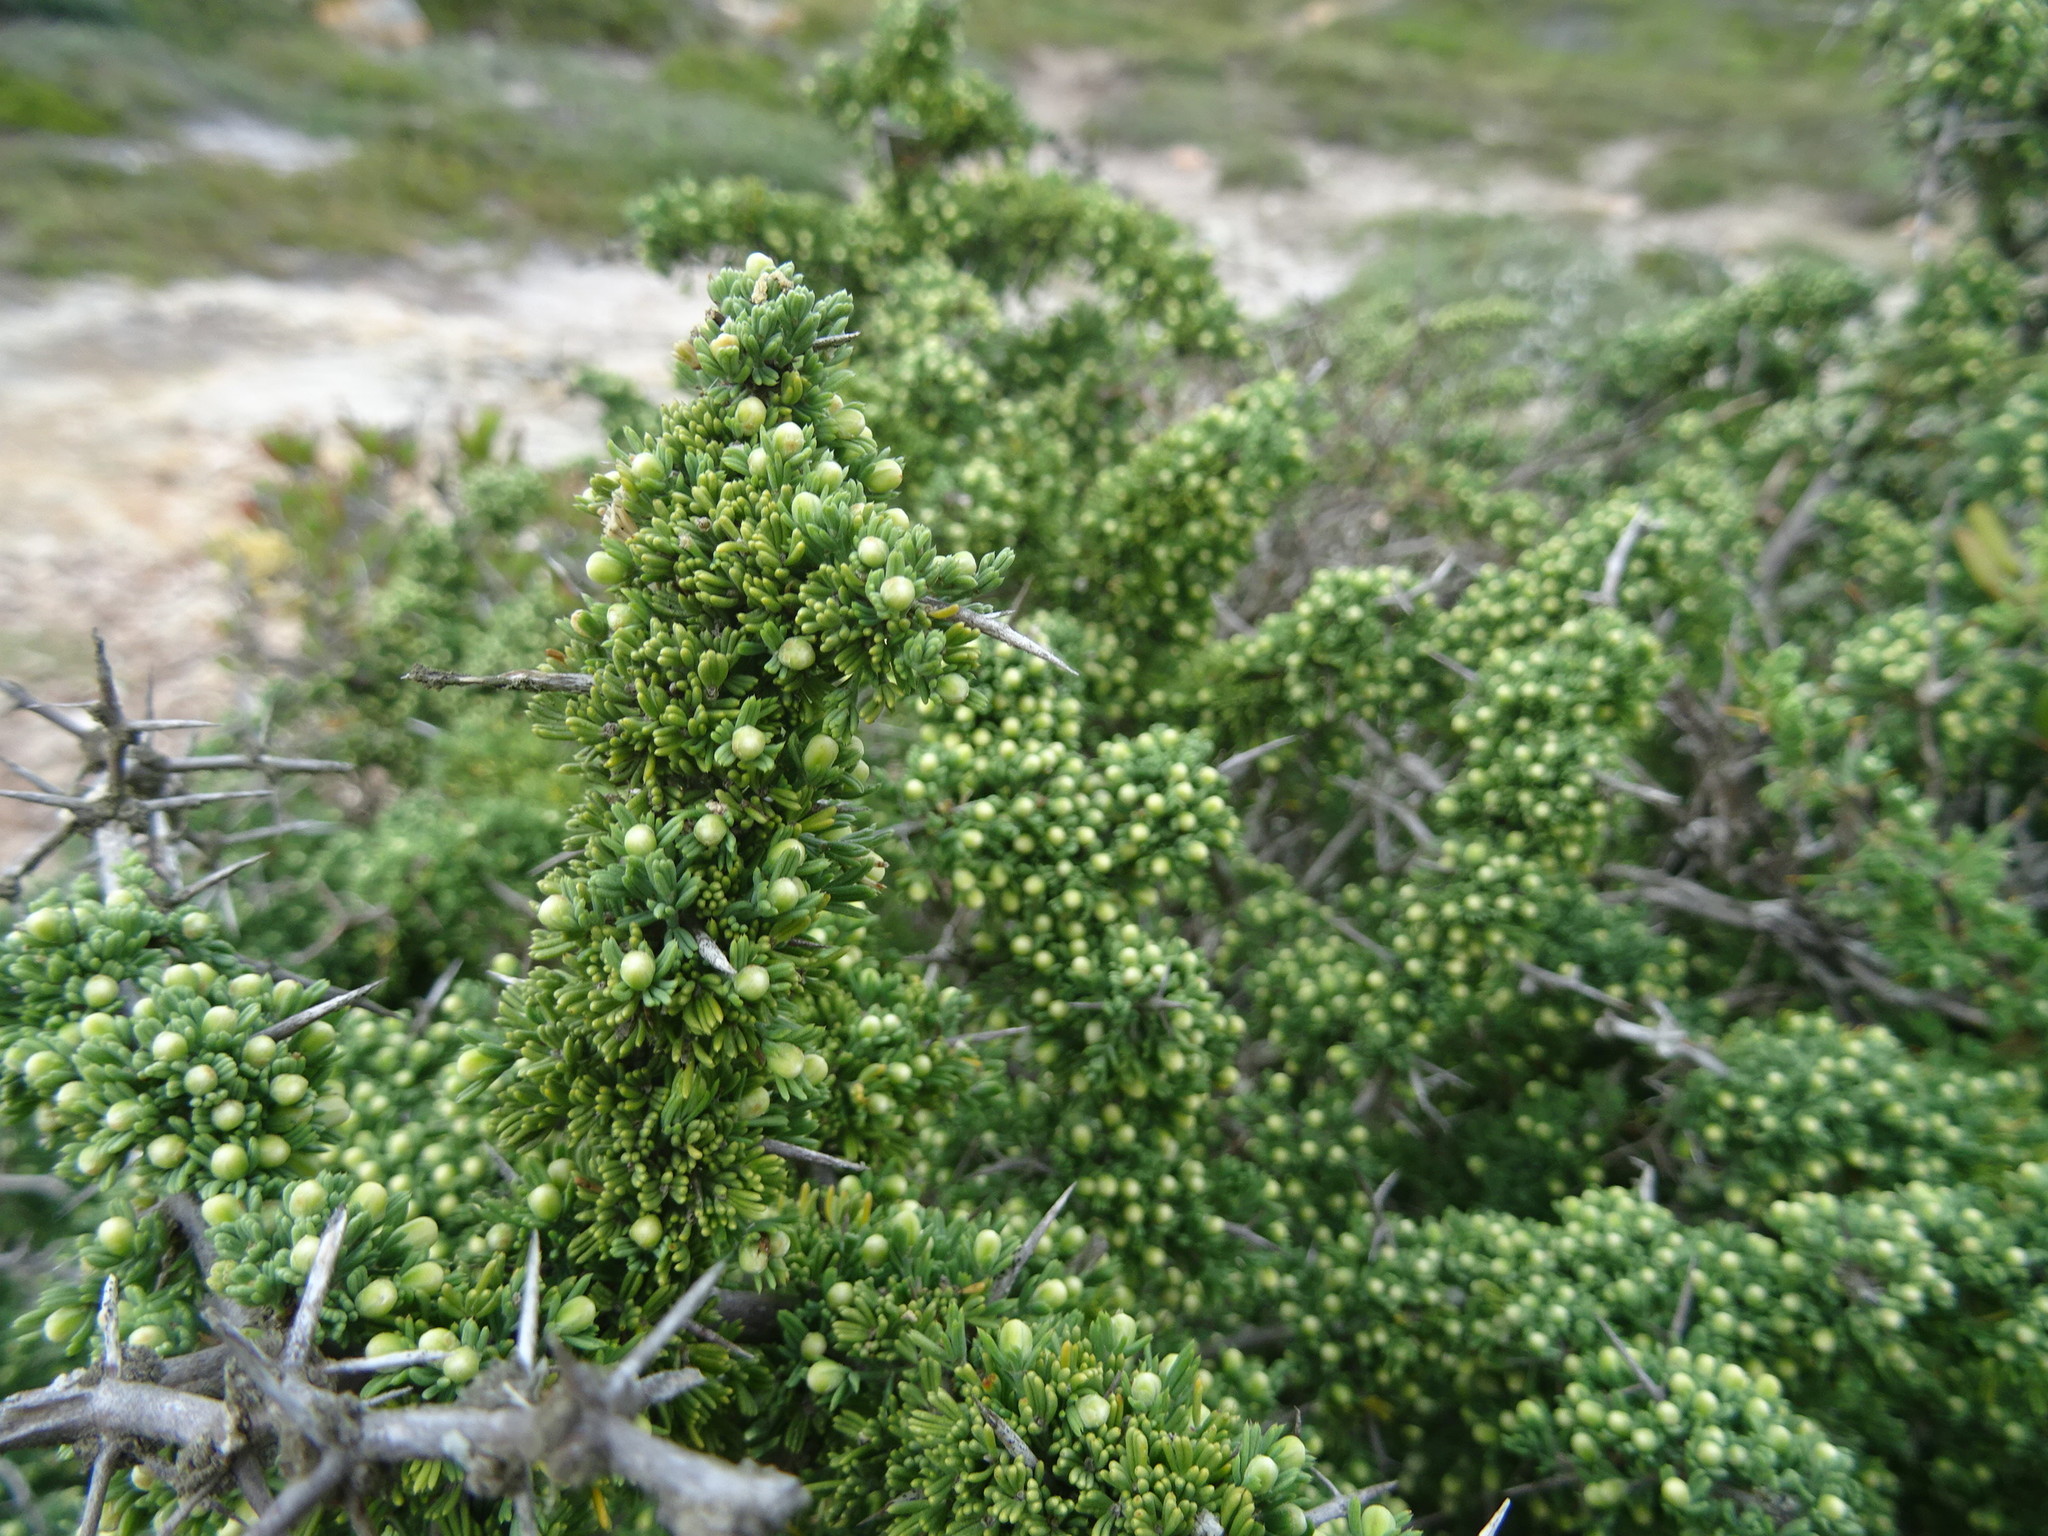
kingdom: Plantae
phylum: Tracheophyta
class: Liliopsida
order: Asparagales
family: Asparagaceae
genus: Asparagus
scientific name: Asparagus capensis
